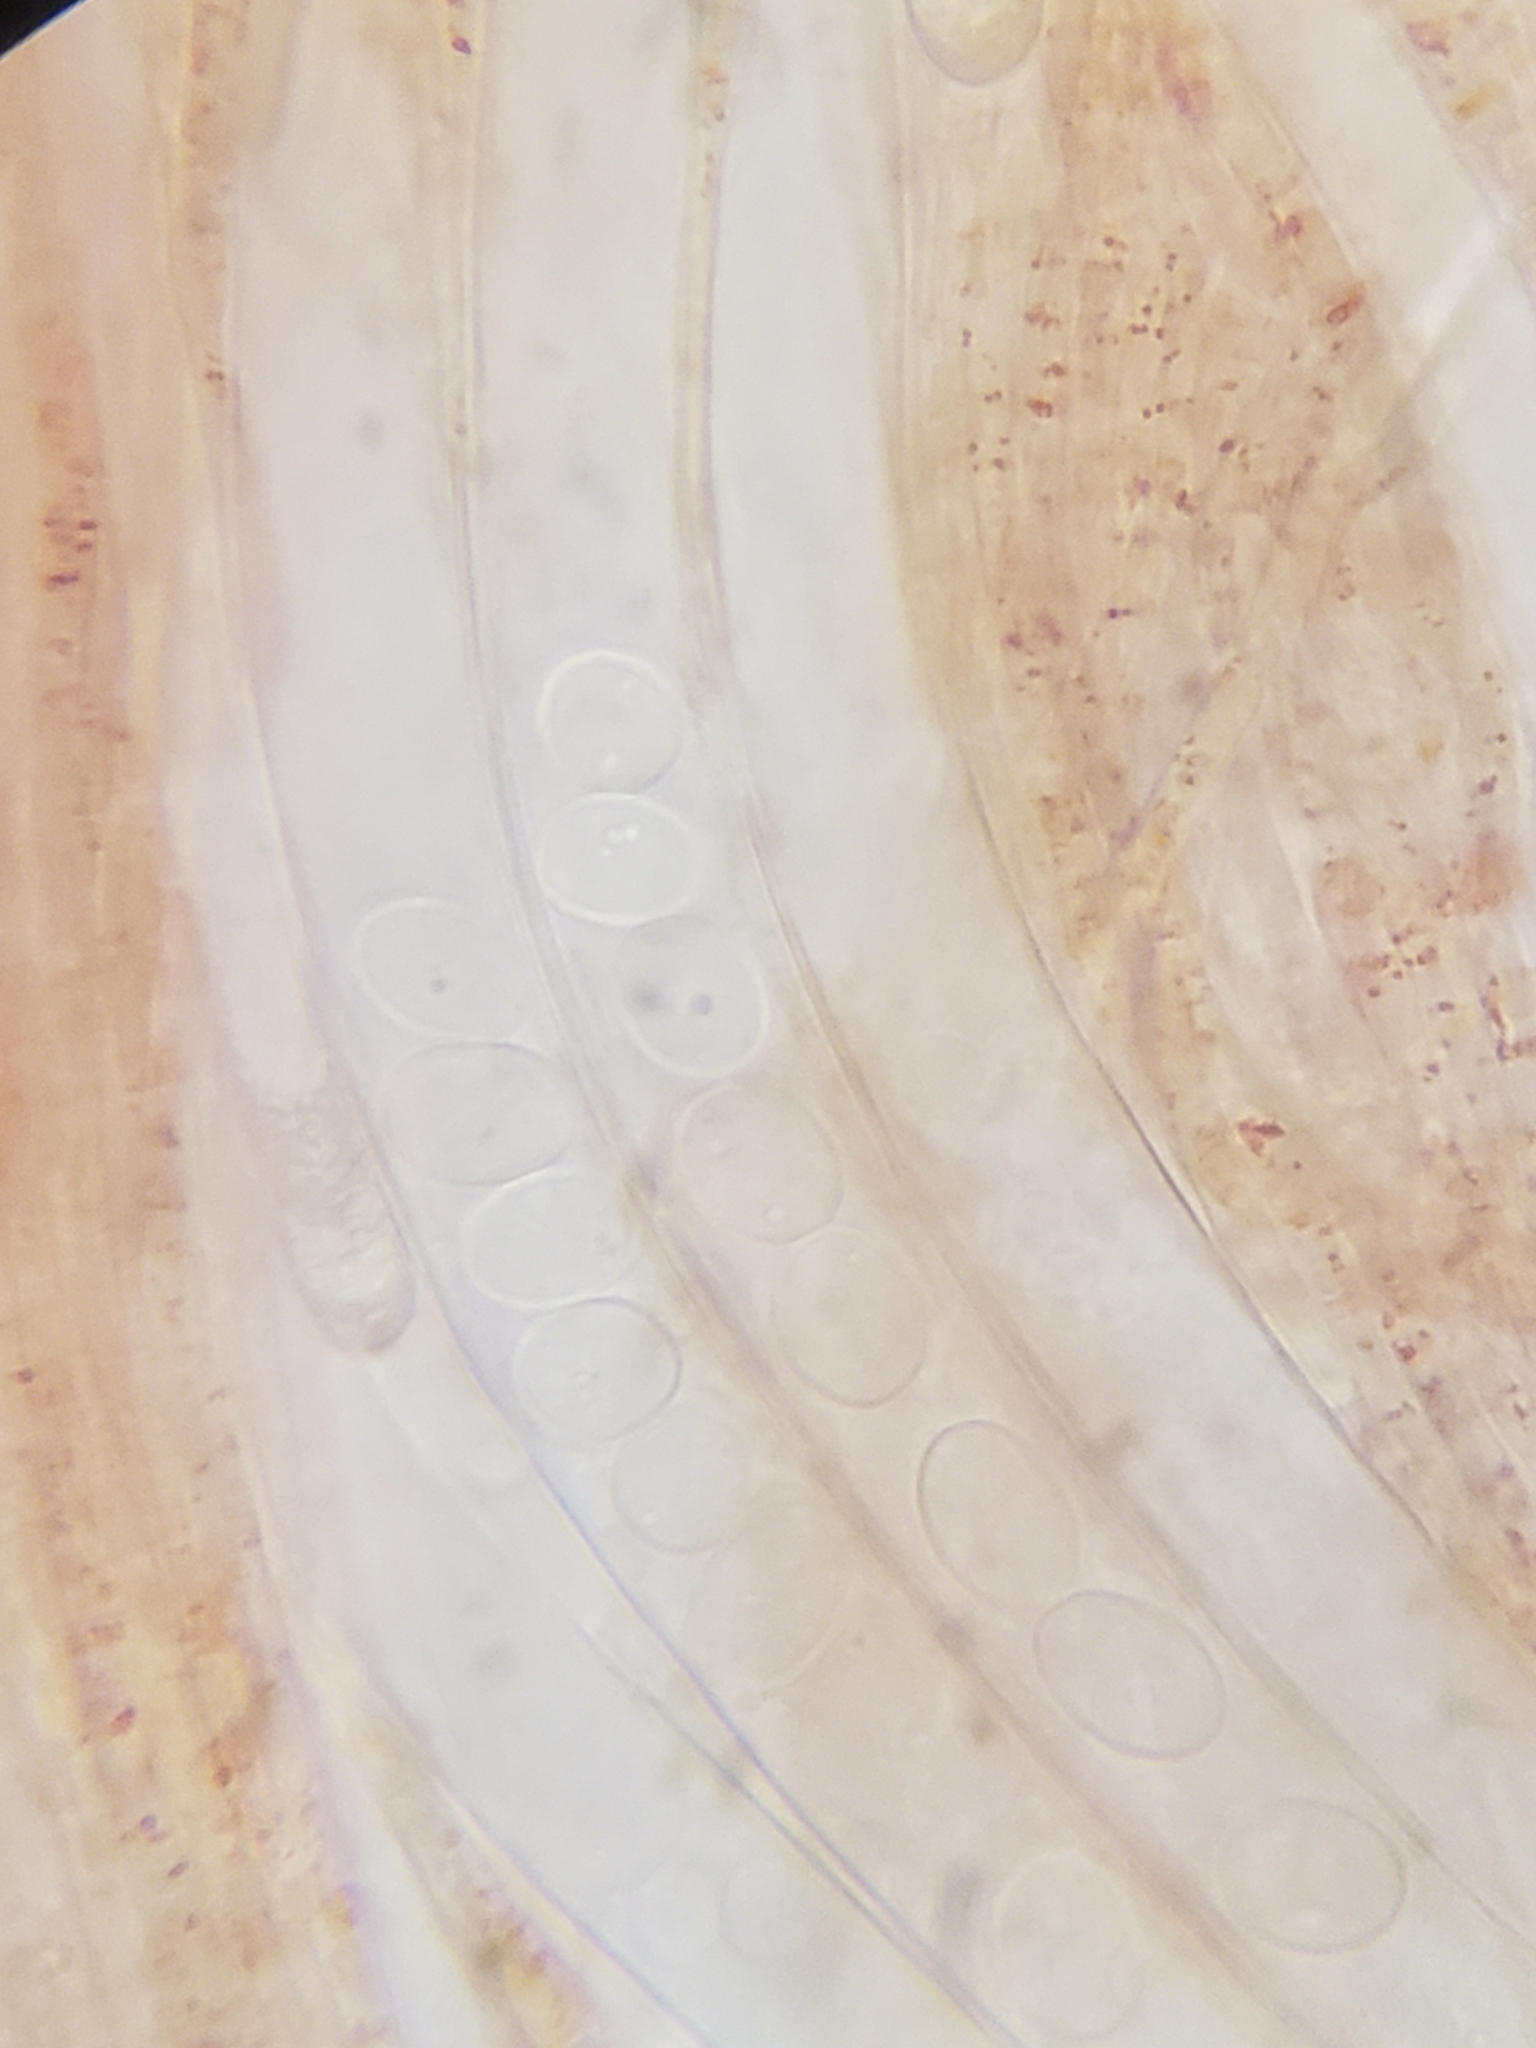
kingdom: Fungi
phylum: Ascomycota
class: Pezizomycetes
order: Pezizales
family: Sarcoscyphaceae
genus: Sarcoscypha
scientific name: Sarcoscypha occidentalis
